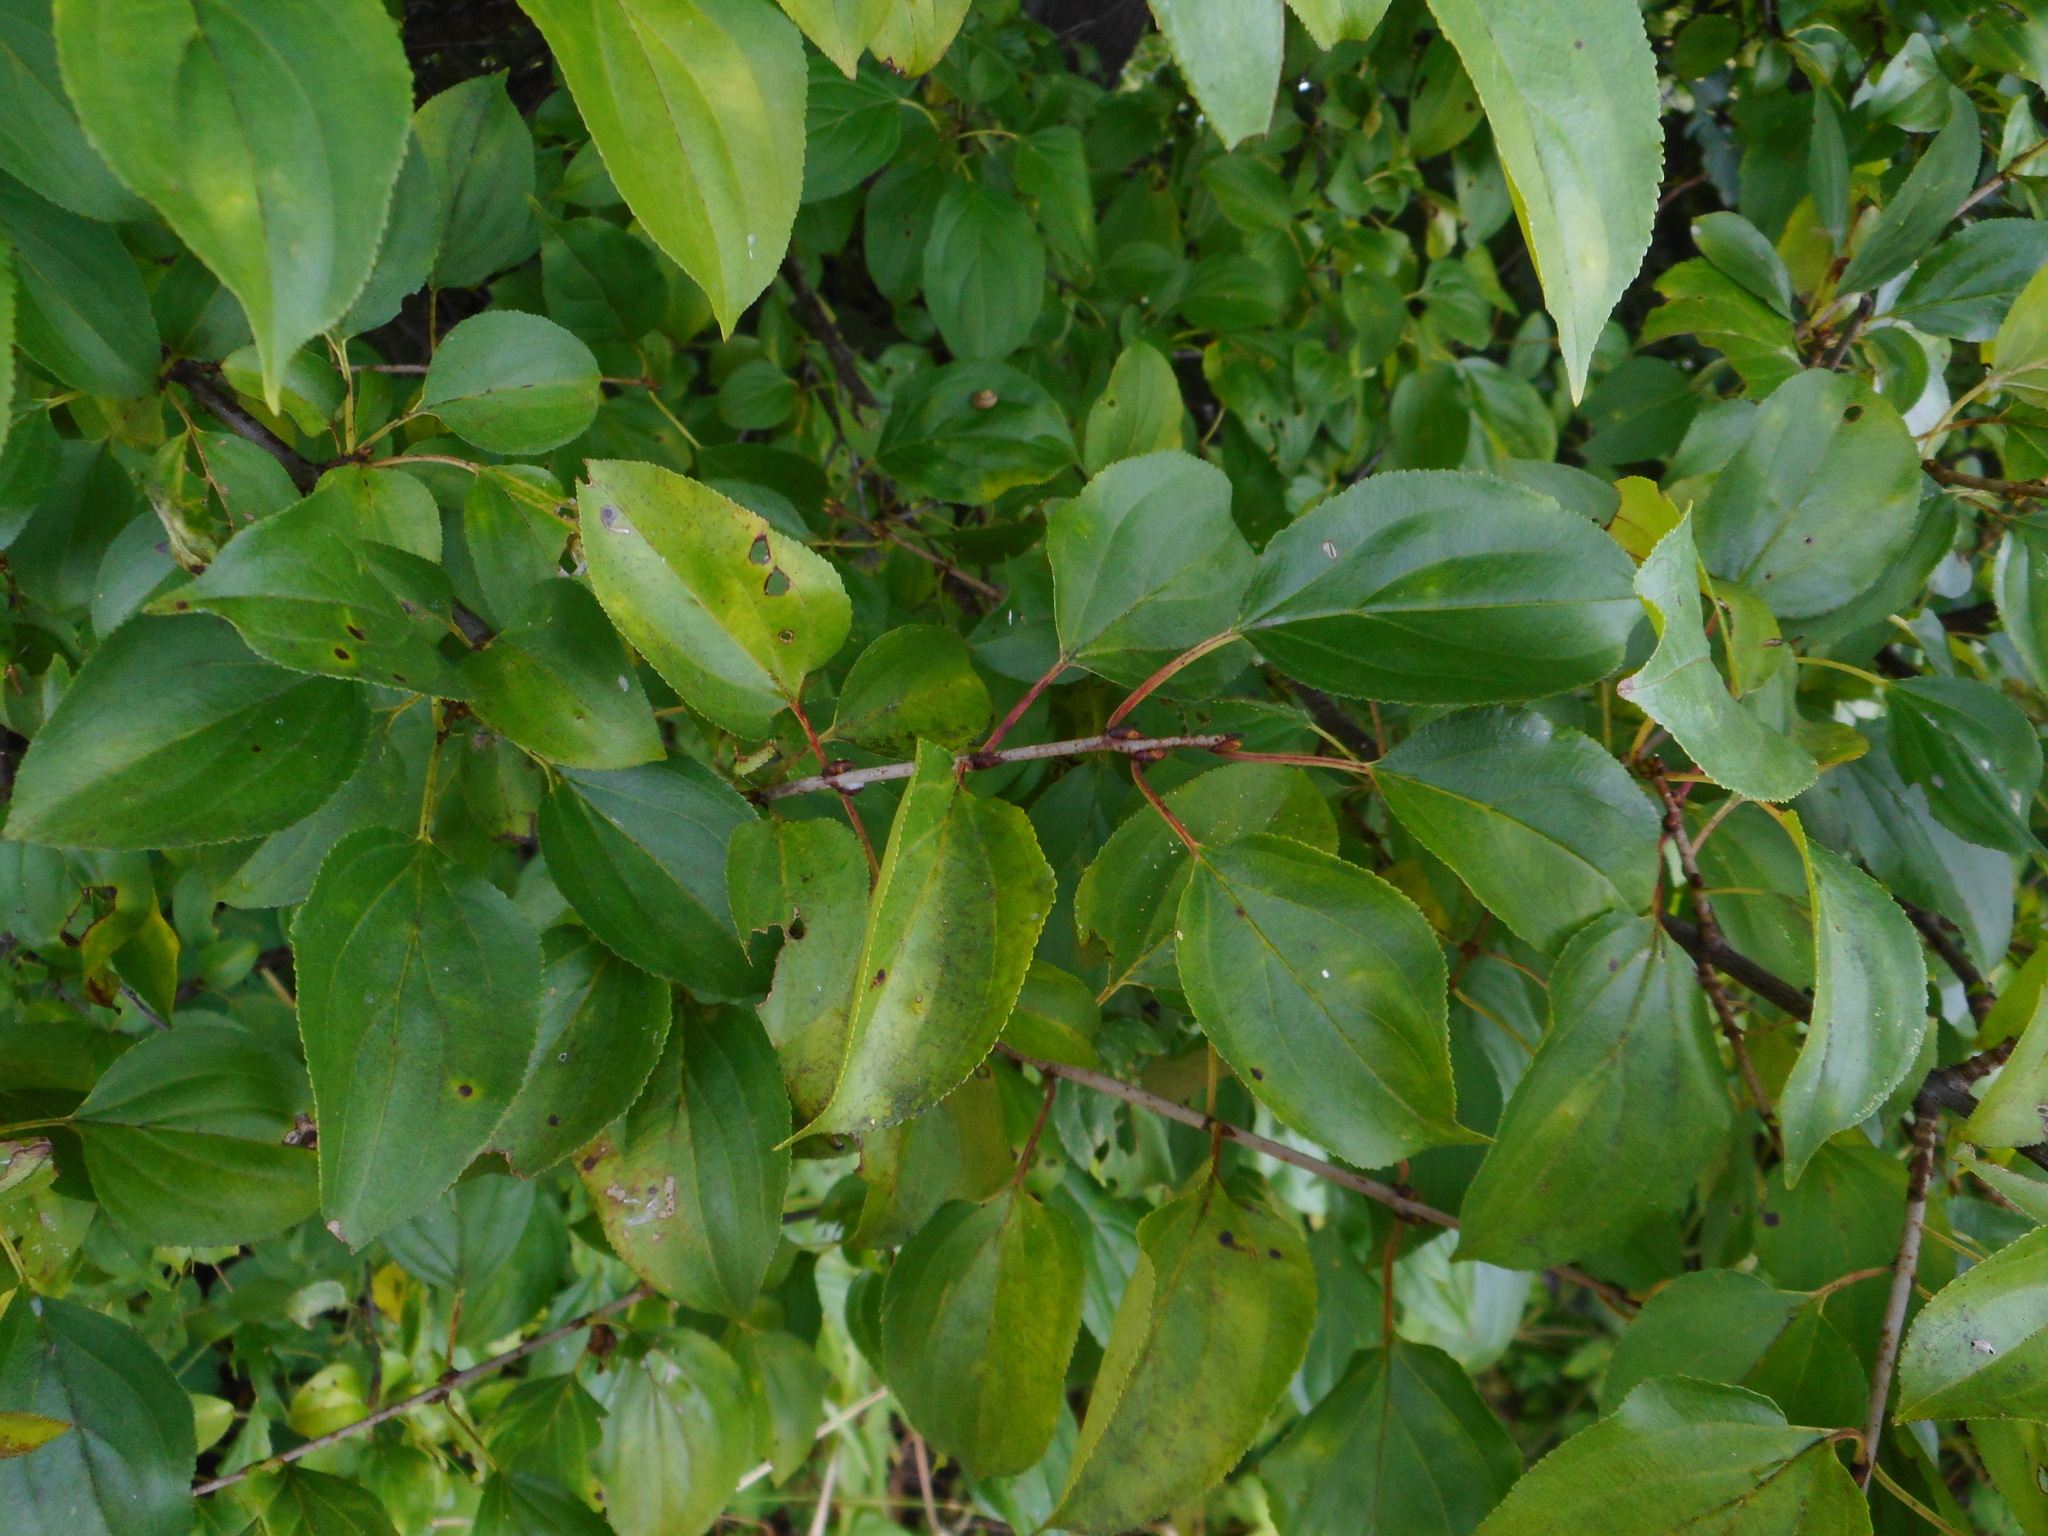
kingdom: Plantae
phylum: Tracheophyta
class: Magnoliopsida
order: Rosales
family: Rhamnaceae
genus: Rhamnus
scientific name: Rhamnus cathartica
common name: Common buckthorn
